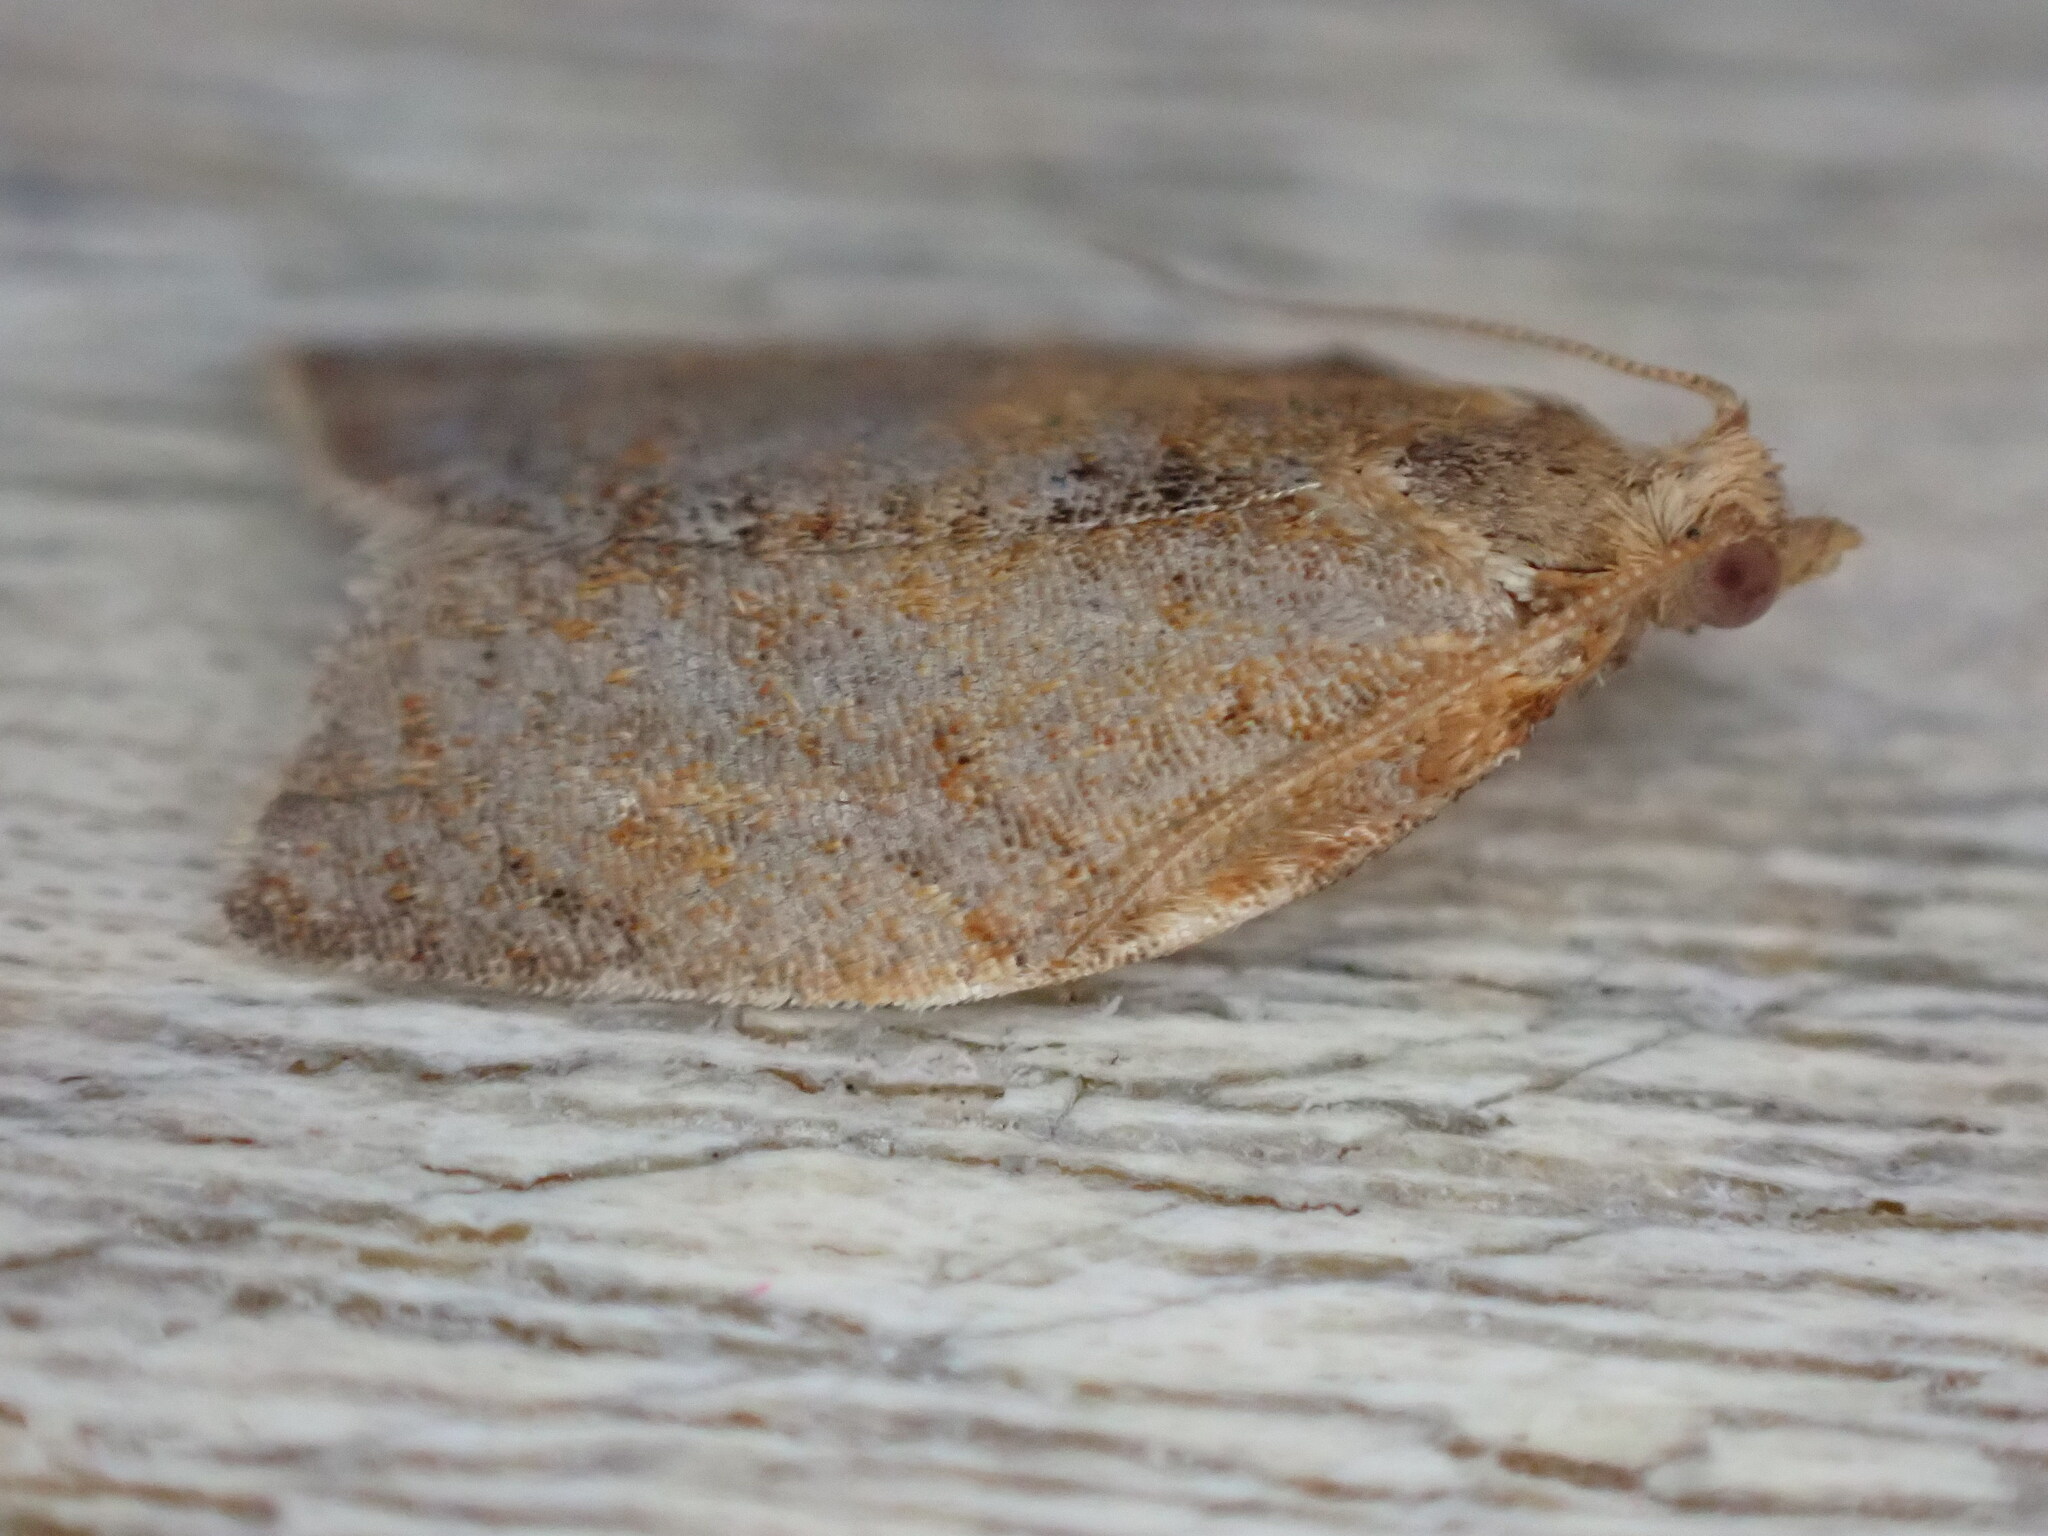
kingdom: Animalia
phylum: Arthropoda
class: Insecta
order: Lepidoptera
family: Tortricidae
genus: Clepsis
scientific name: Clepsis consimilana
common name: Privet tortrix
